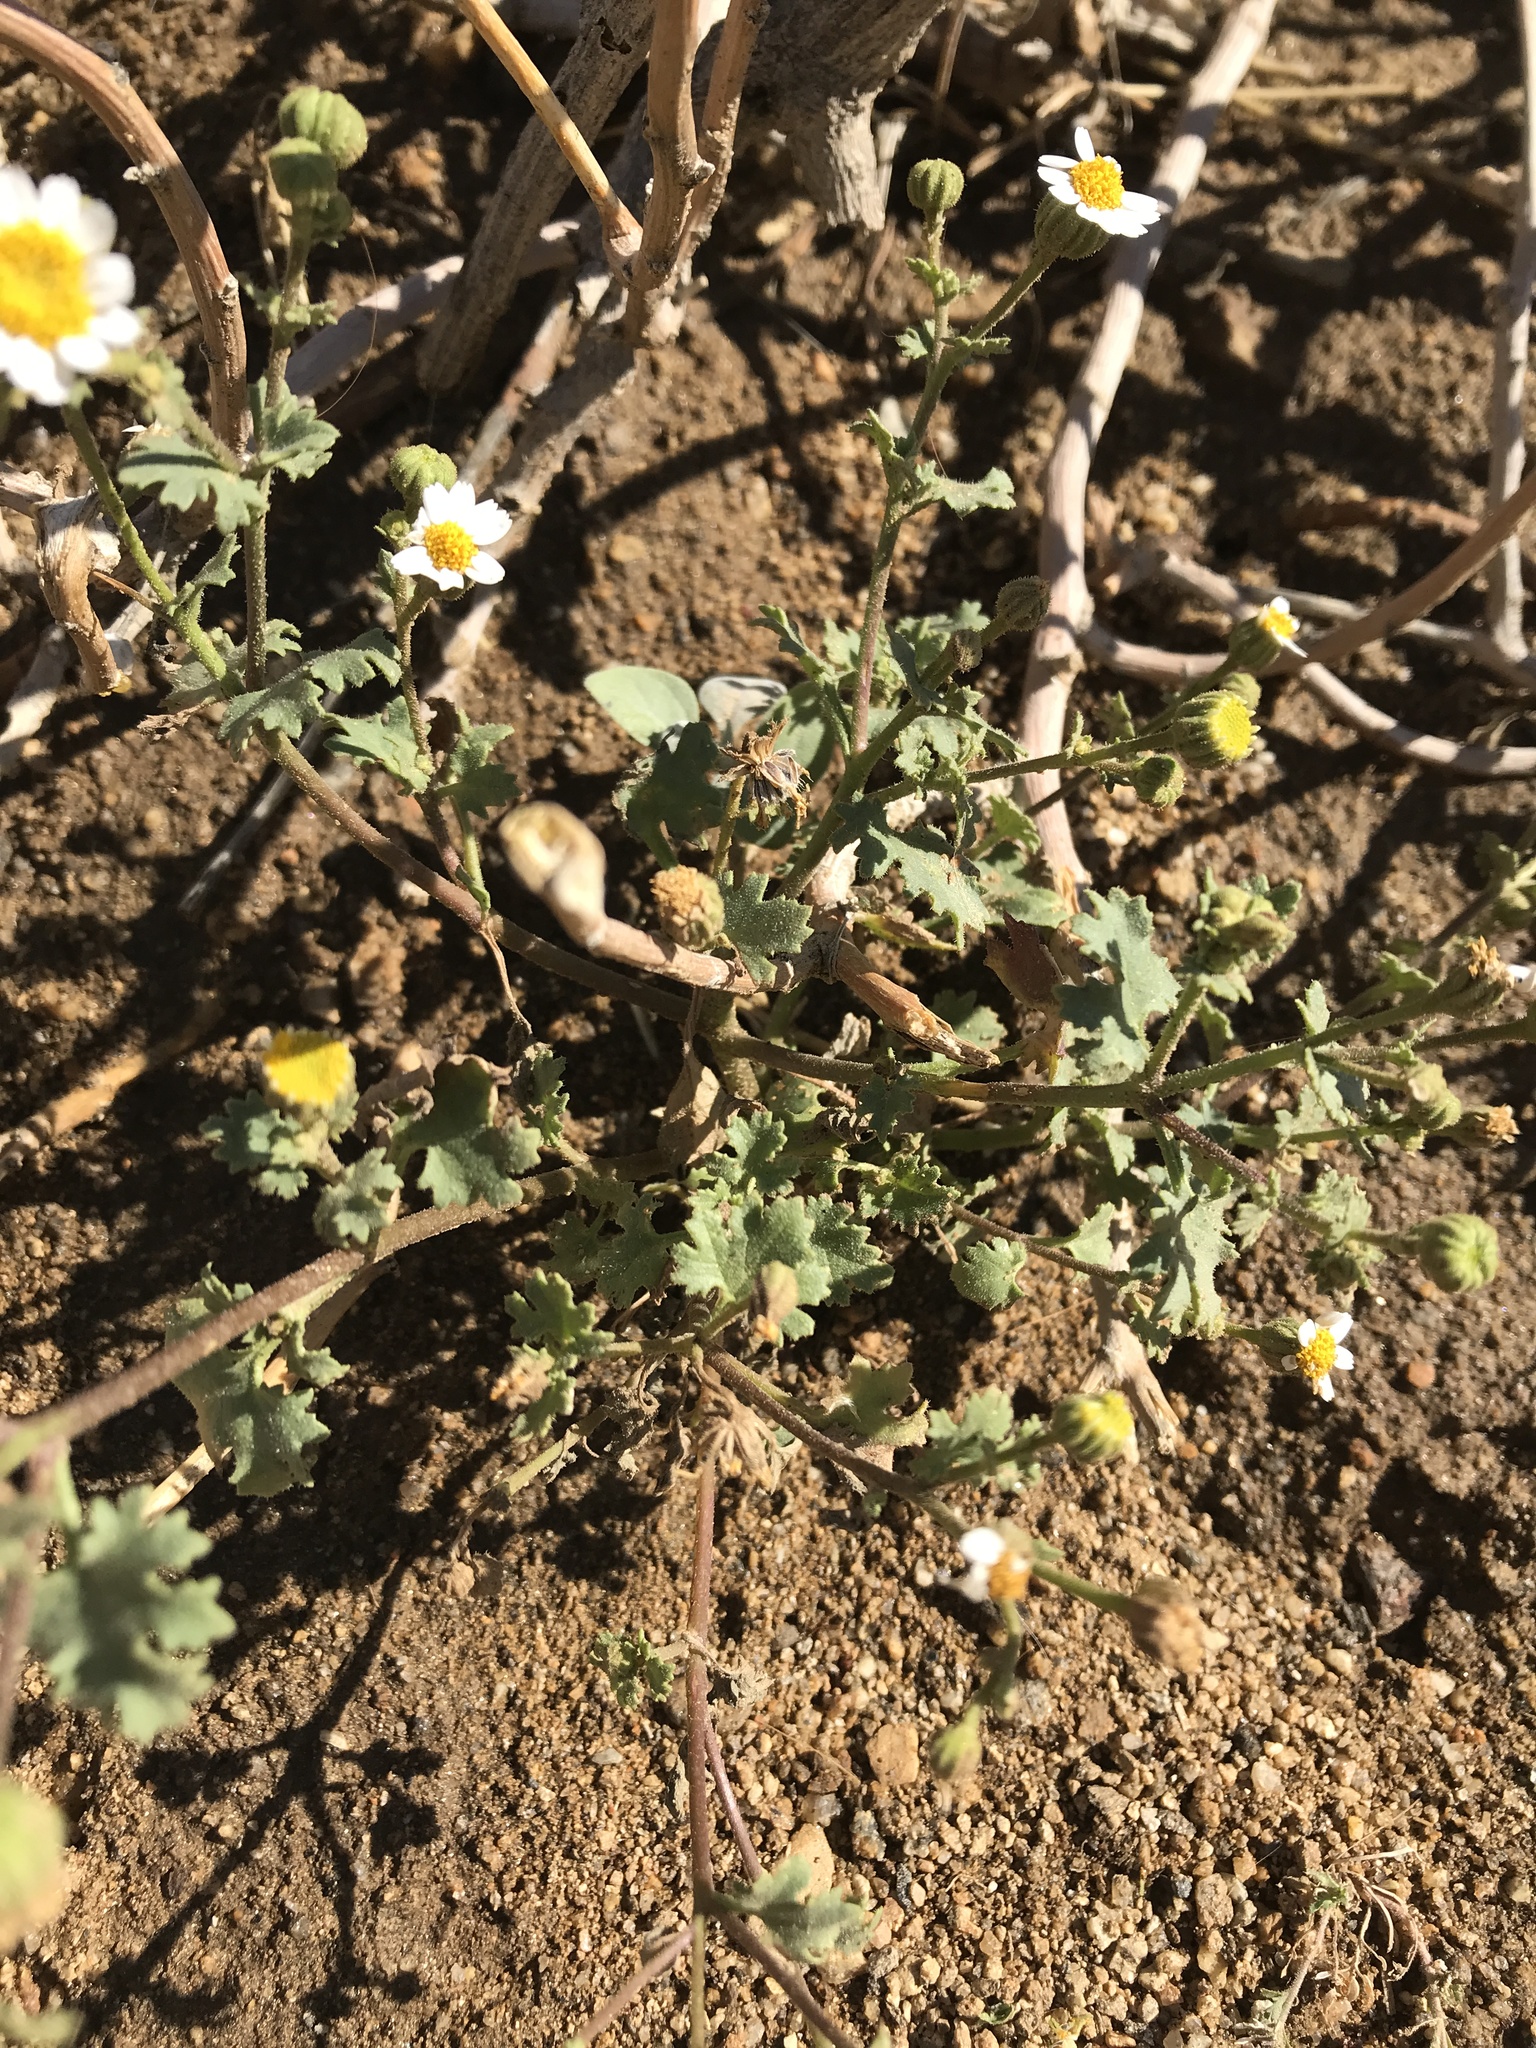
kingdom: Plantae
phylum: Tracheophyta
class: Magnoliopsida
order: Asterales
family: Asteraceae
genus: Laphamia
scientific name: Laphamia emoryi
